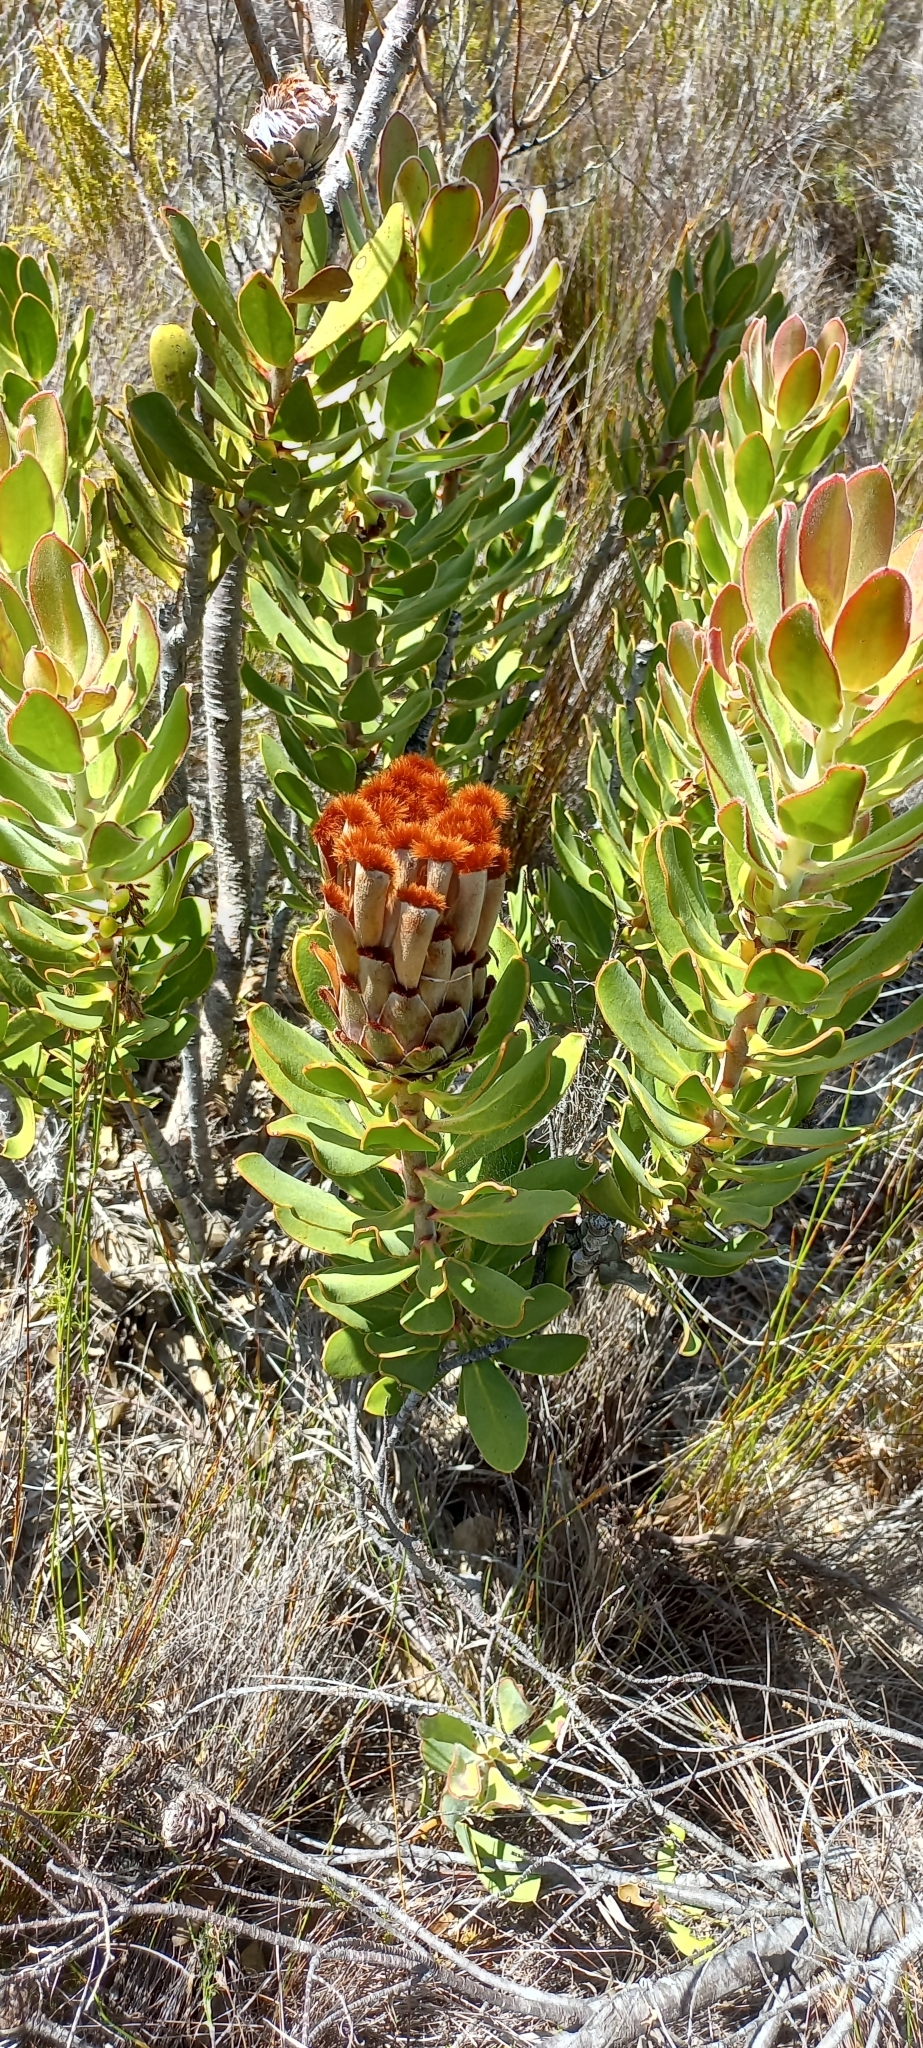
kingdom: Plantae
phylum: Tracheophyta
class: Magnoliopsida
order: Proteales
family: Proteaceae
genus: Protea
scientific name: Protea speciosa
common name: Brown-beard sugarbush
